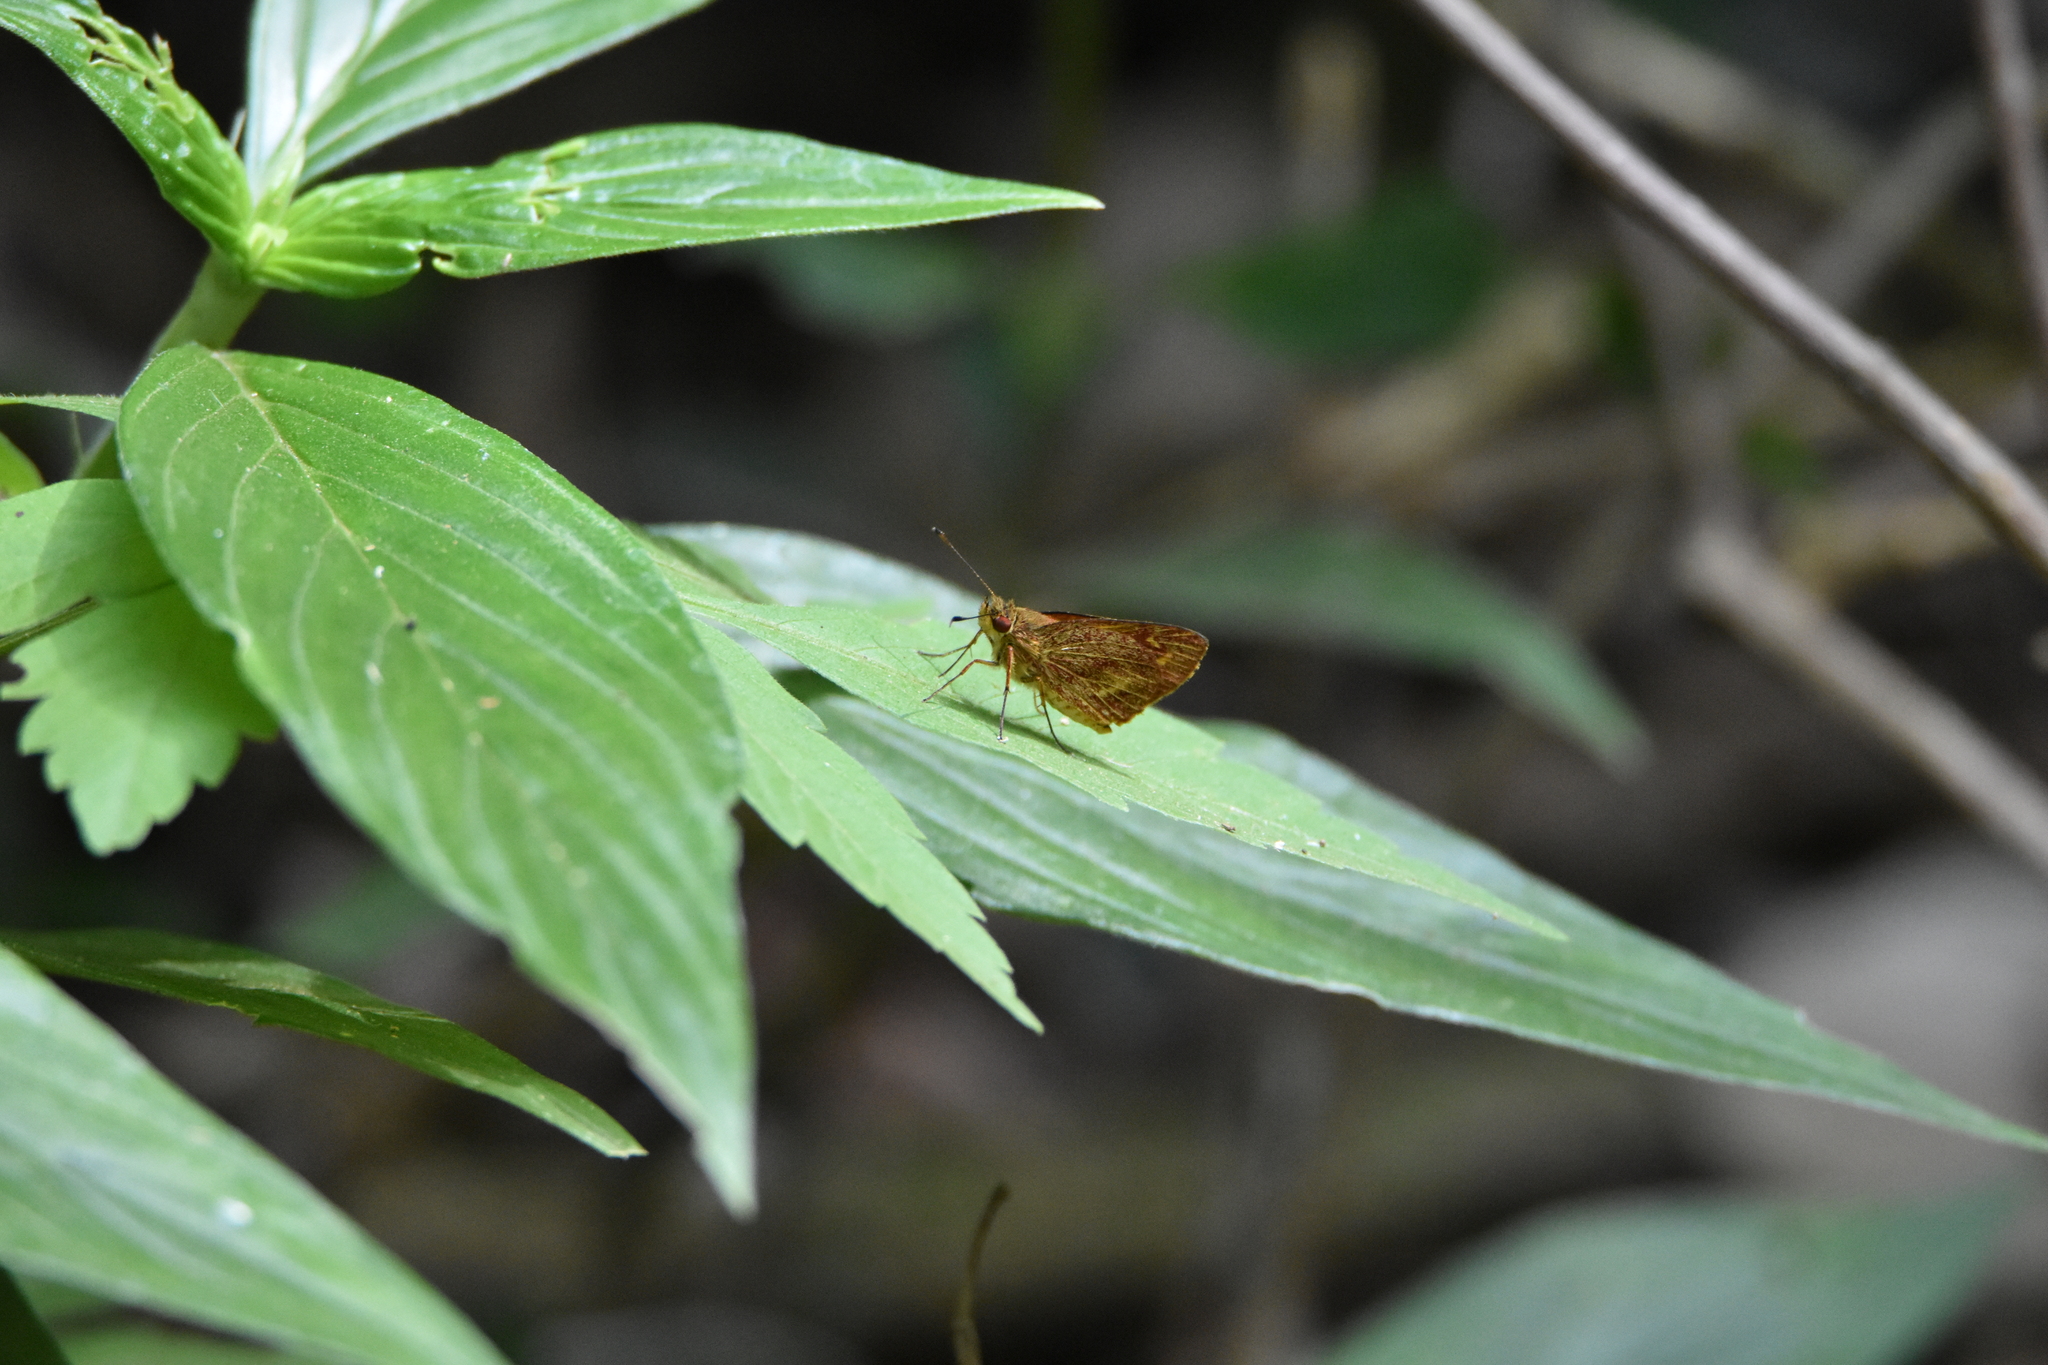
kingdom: Animalia
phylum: Arthropoda
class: Insecta
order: Lepidoptera
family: Hesperiidae
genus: Lento
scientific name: Lento krexoides
